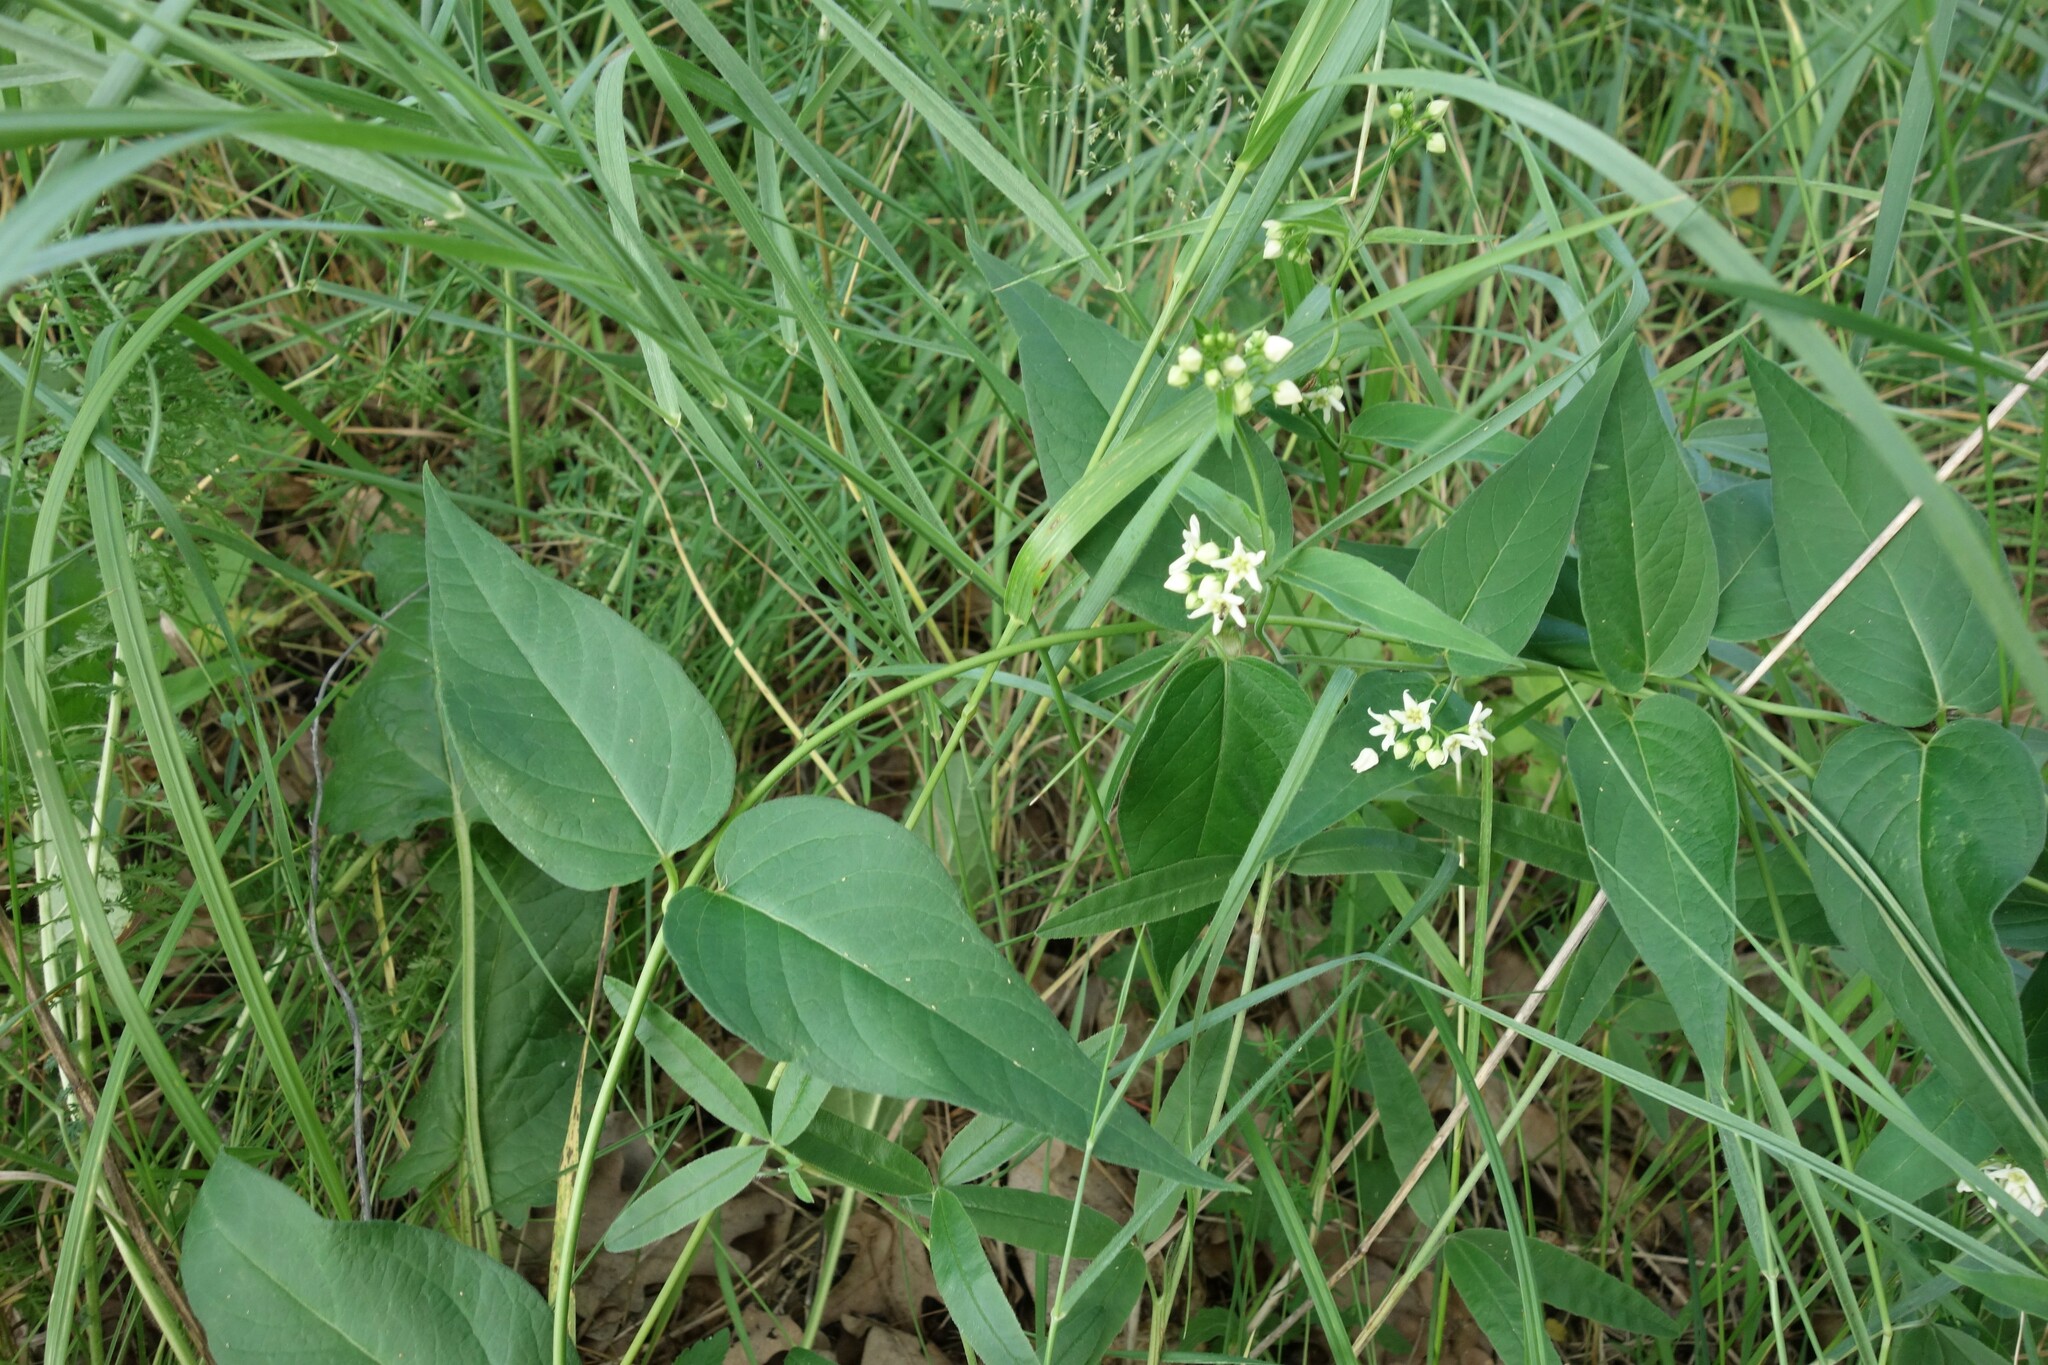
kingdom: Plantae
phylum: Tracheophyta
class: Magnoliopsida
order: Gentianales
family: Apocynaceae
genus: Vincetoxicum
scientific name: Vincetoxicum hirundinaria
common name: White swallowwort
